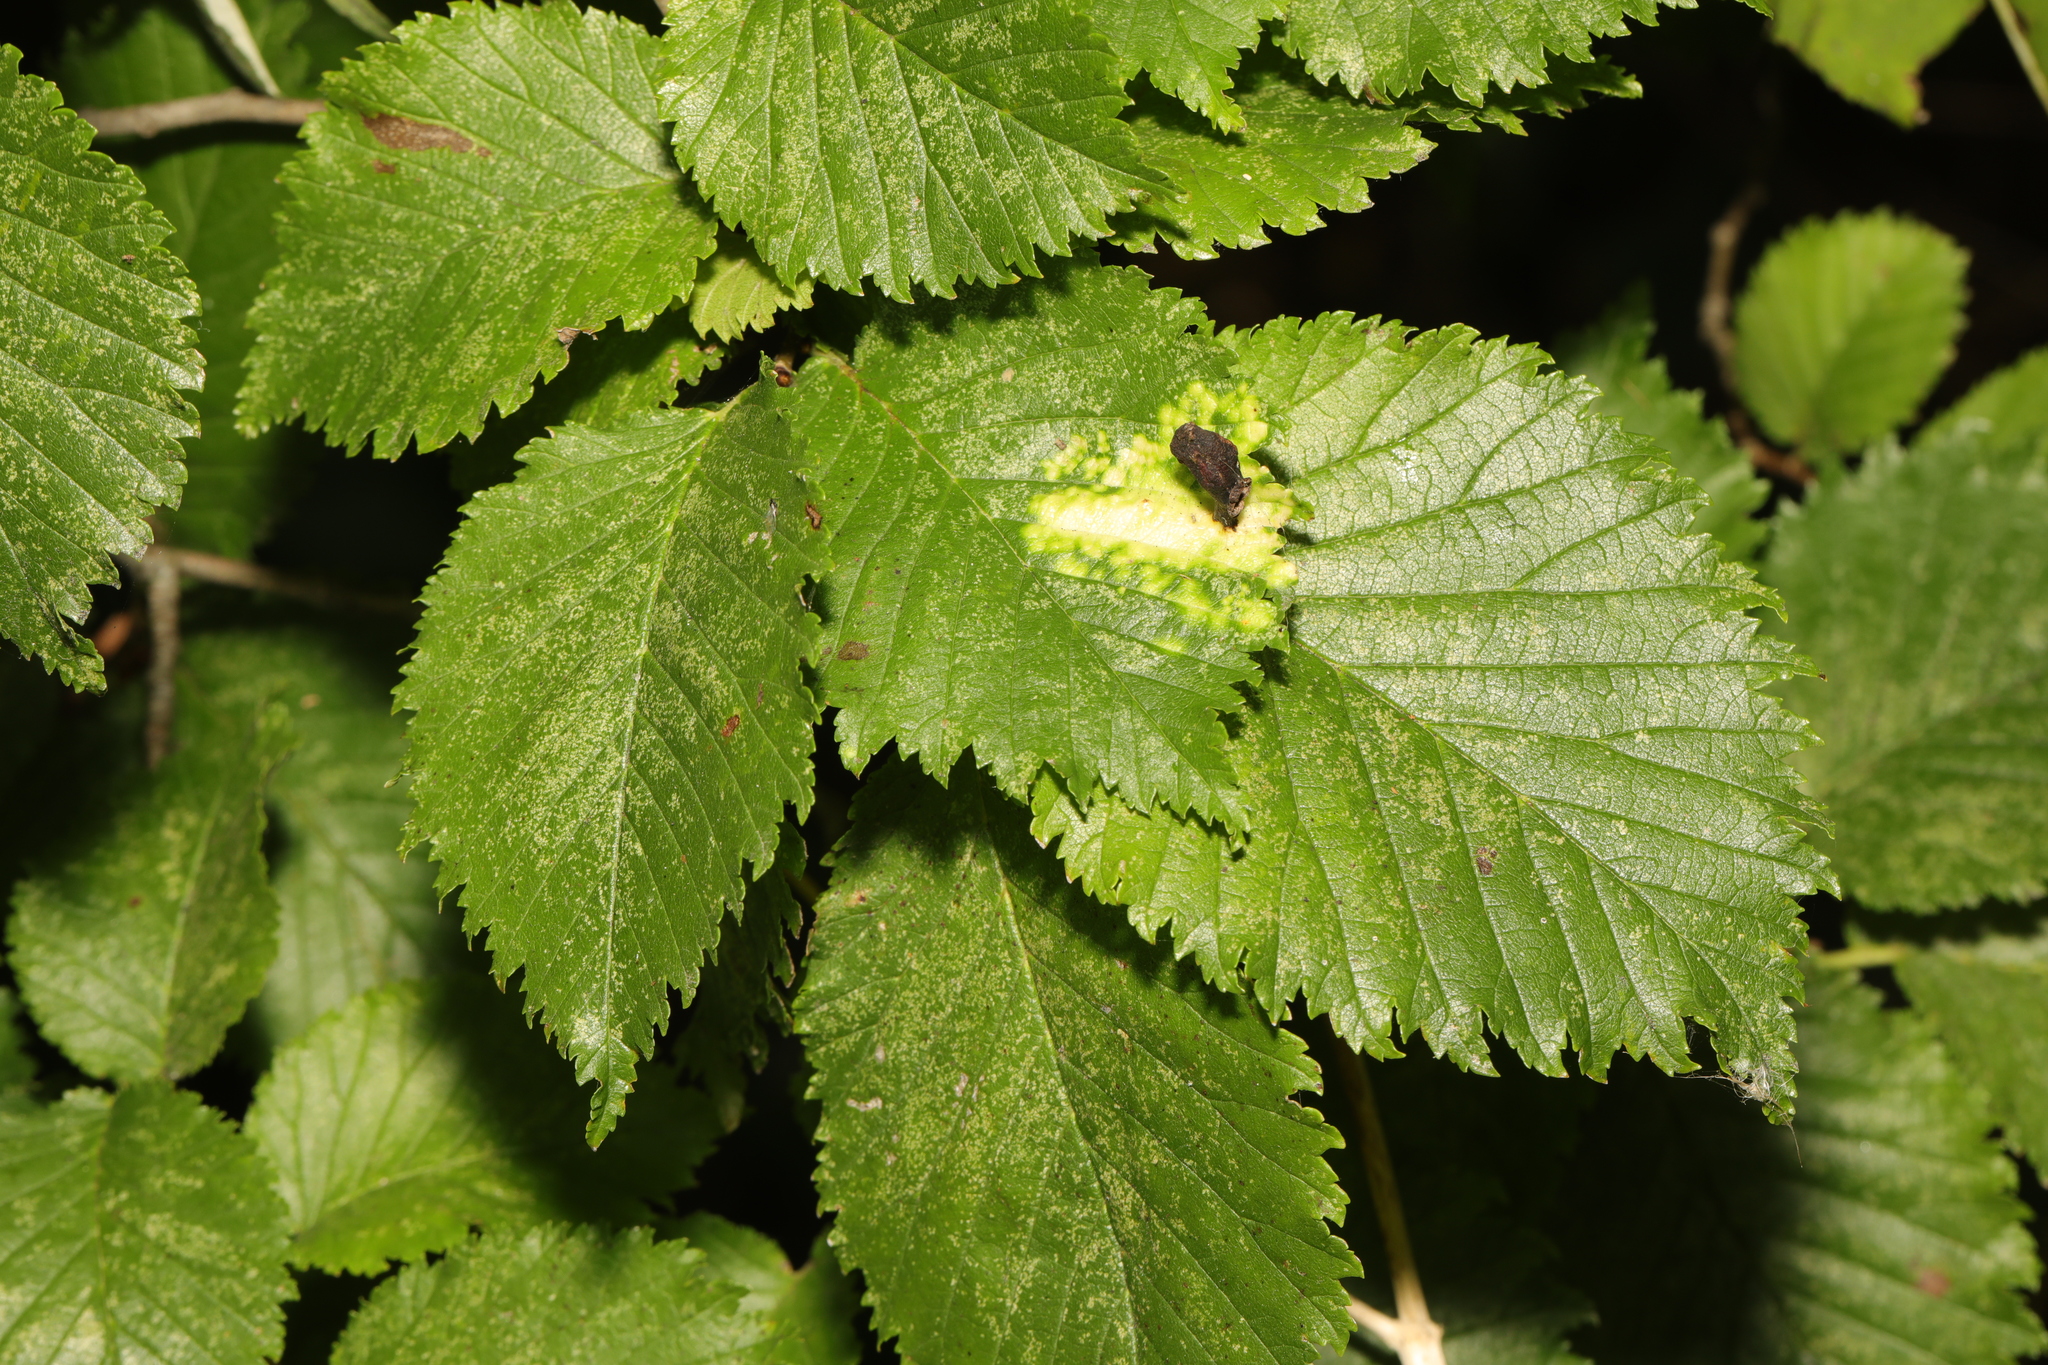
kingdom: Plantae
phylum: Tracheophyta
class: Magnoliopsida
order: Rosales
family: Ulmaceae
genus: Ulmus
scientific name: Ulmus glabra
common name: Wych elm
